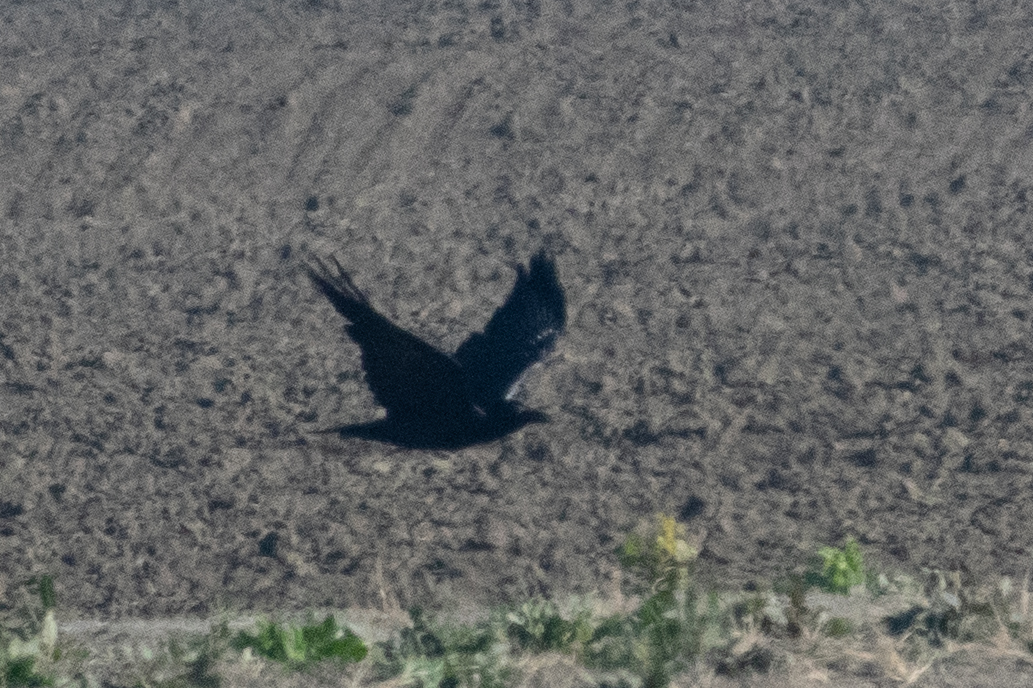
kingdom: Animalia
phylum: Chordata
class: Aves
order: Passeriformes
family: Corvidae
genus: Corvus
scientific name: Corvus corax
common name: Common raven
